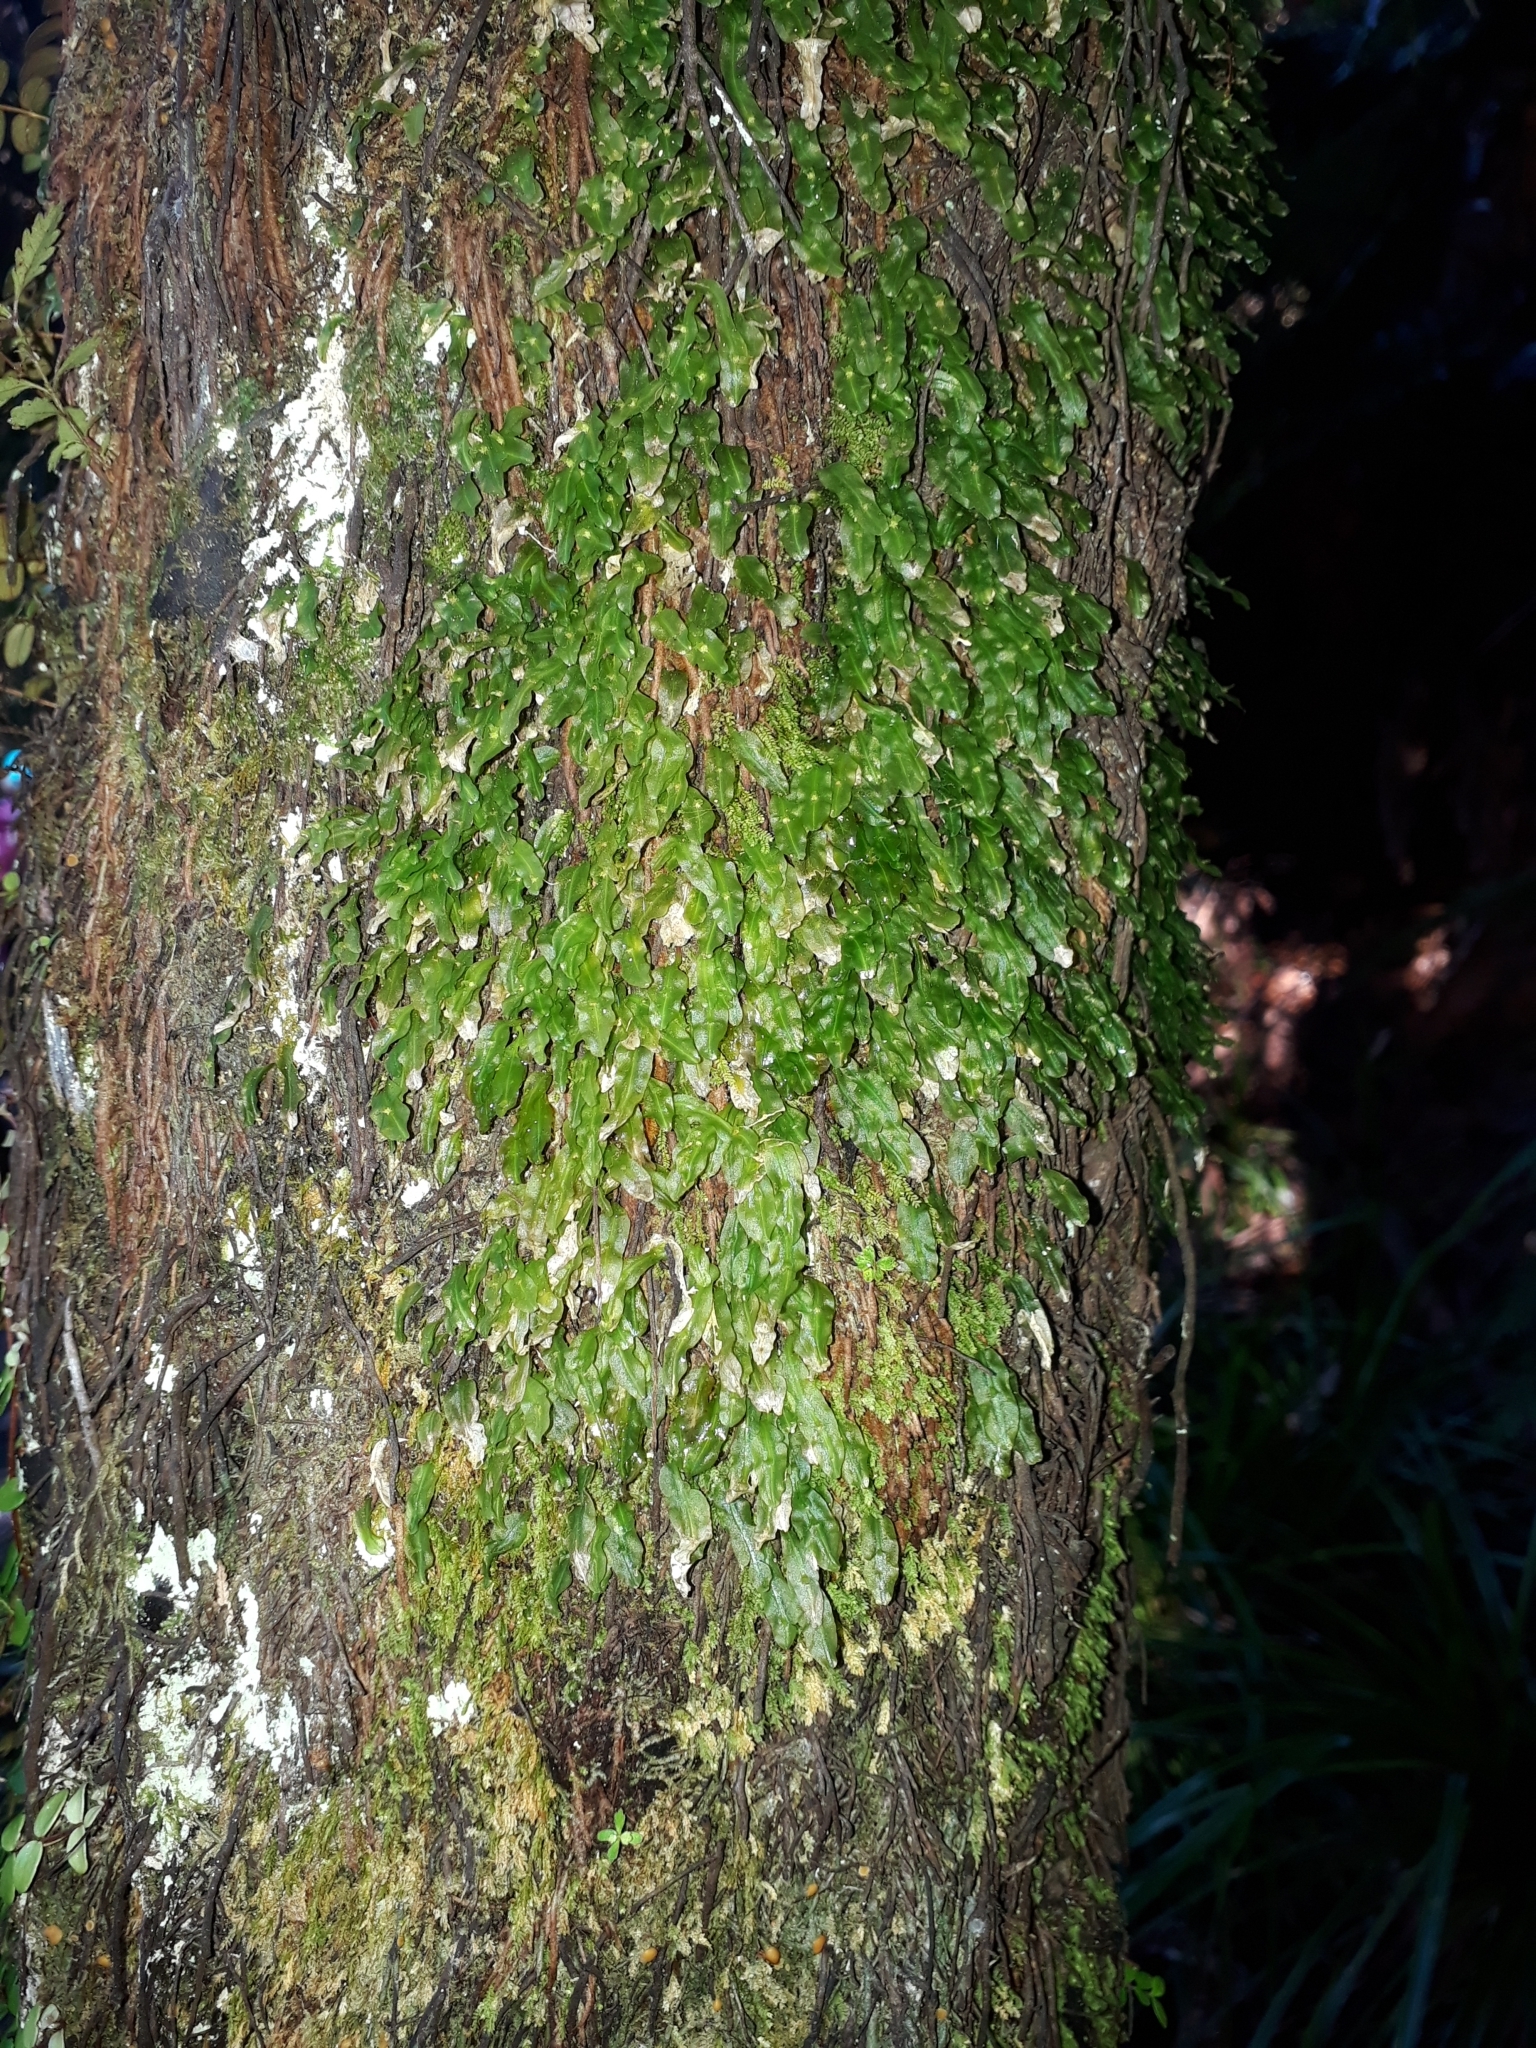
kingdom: Plantae
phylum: Marchantiophyta
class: Jungermanniopsida
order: Pallaviciniales
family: Pallaviciniaceae
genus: Symphyogyna
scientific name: Symphyogyna subsimplex
